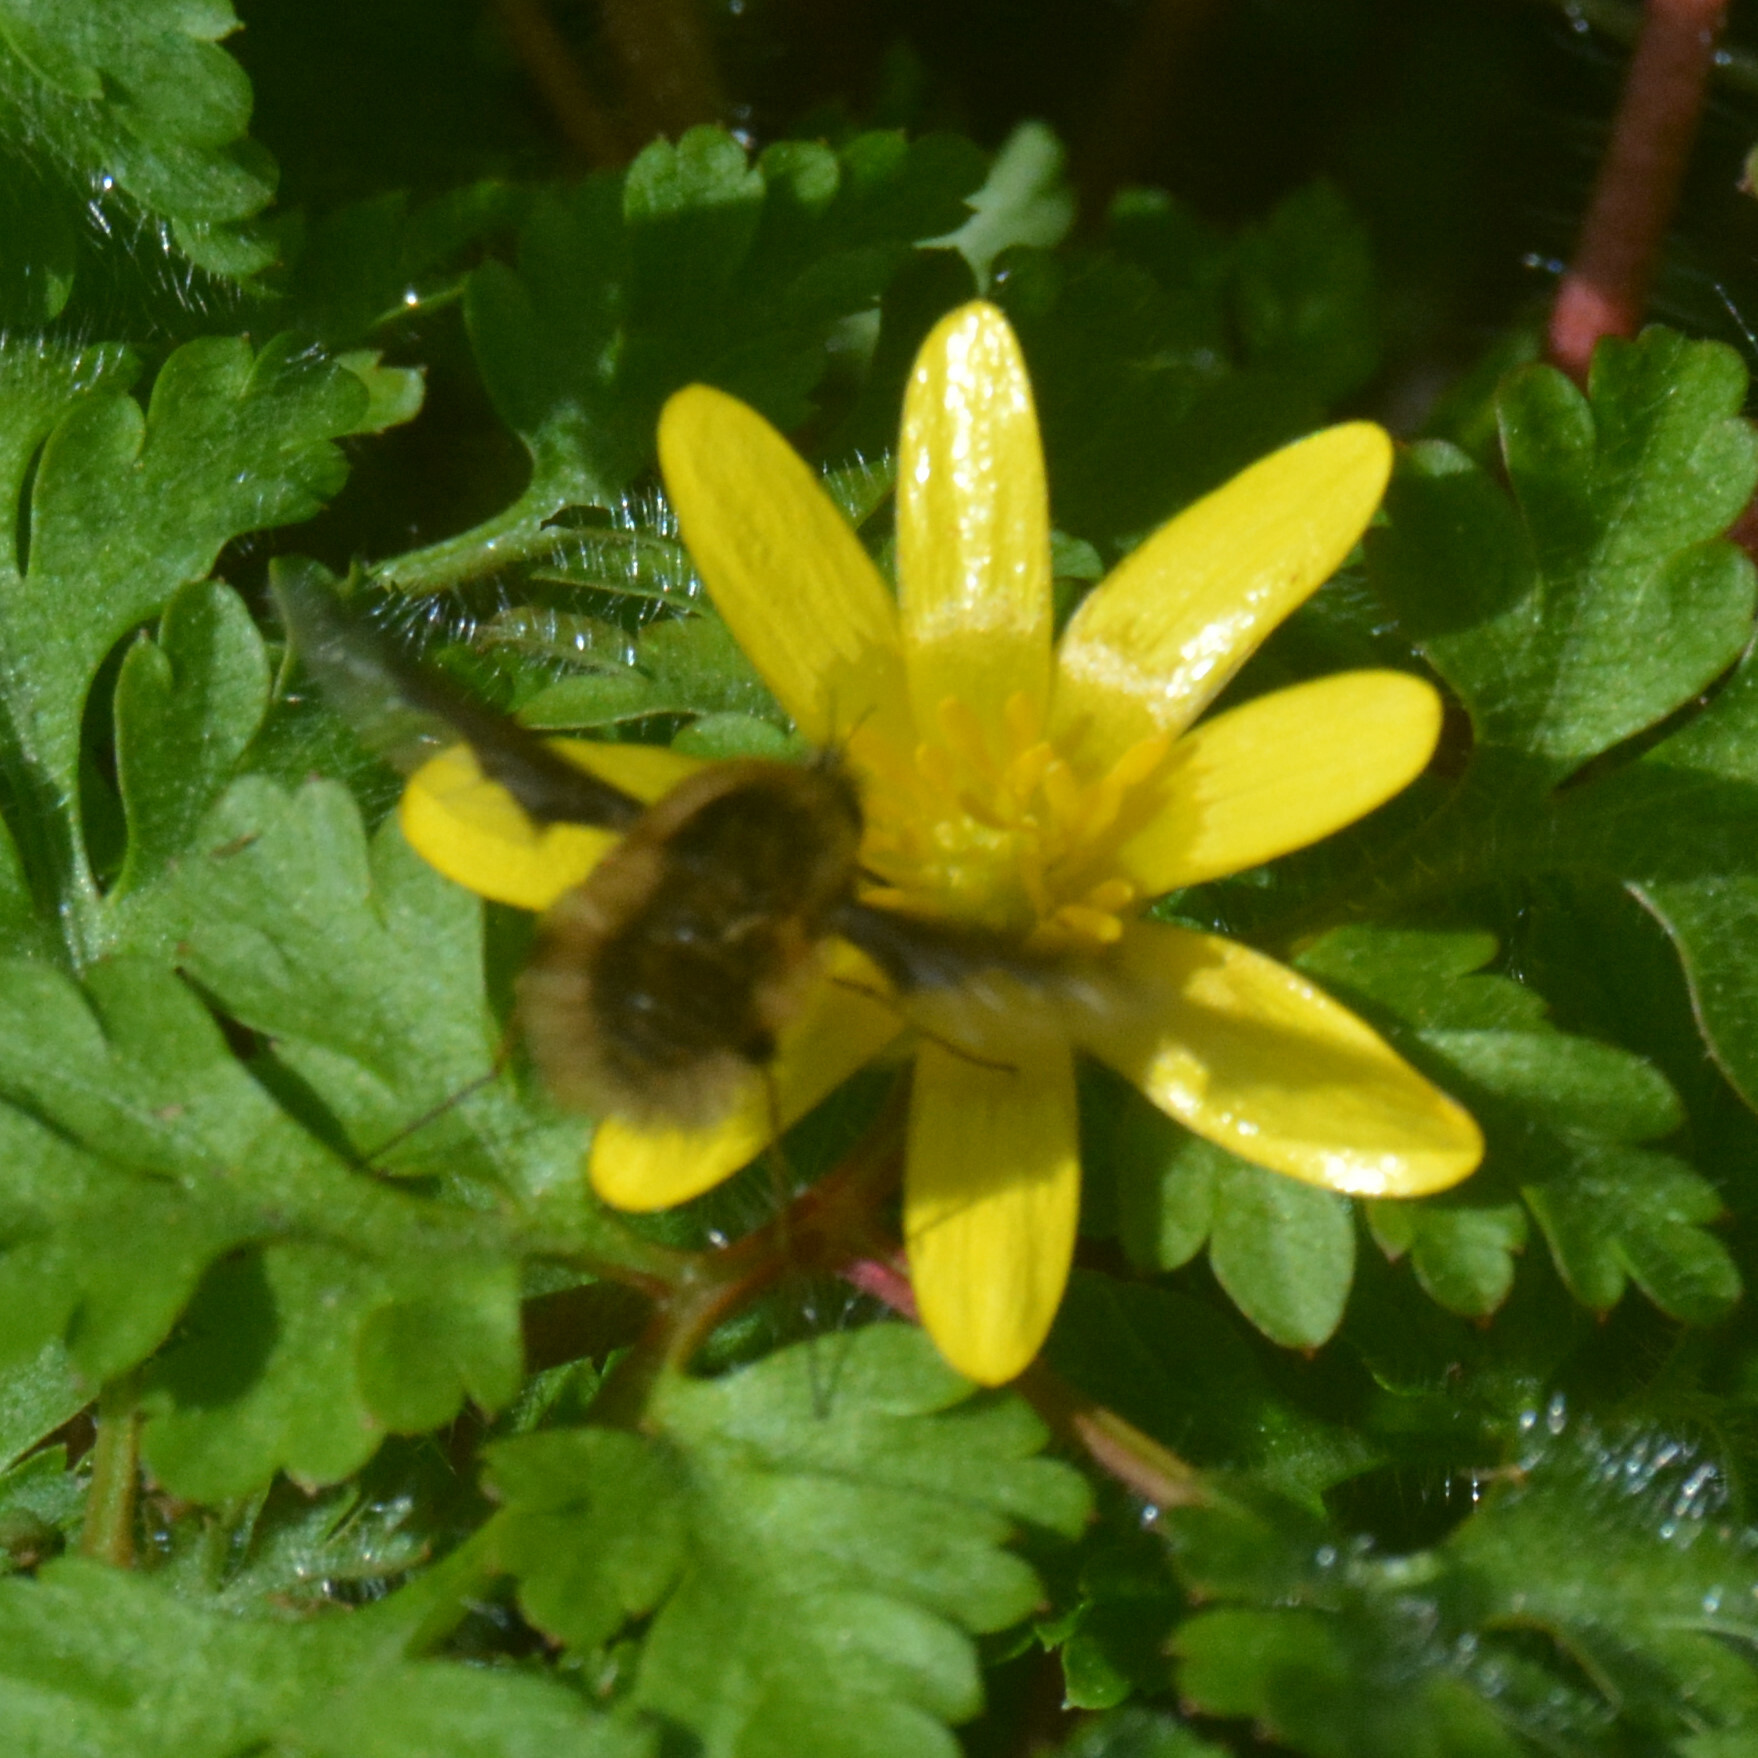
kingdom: Animalia
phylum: Arthropoda
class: Insecta
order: Diptera
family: Bombyliidae
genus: Bombylius
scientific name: Bombylius major
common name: Bee fly
